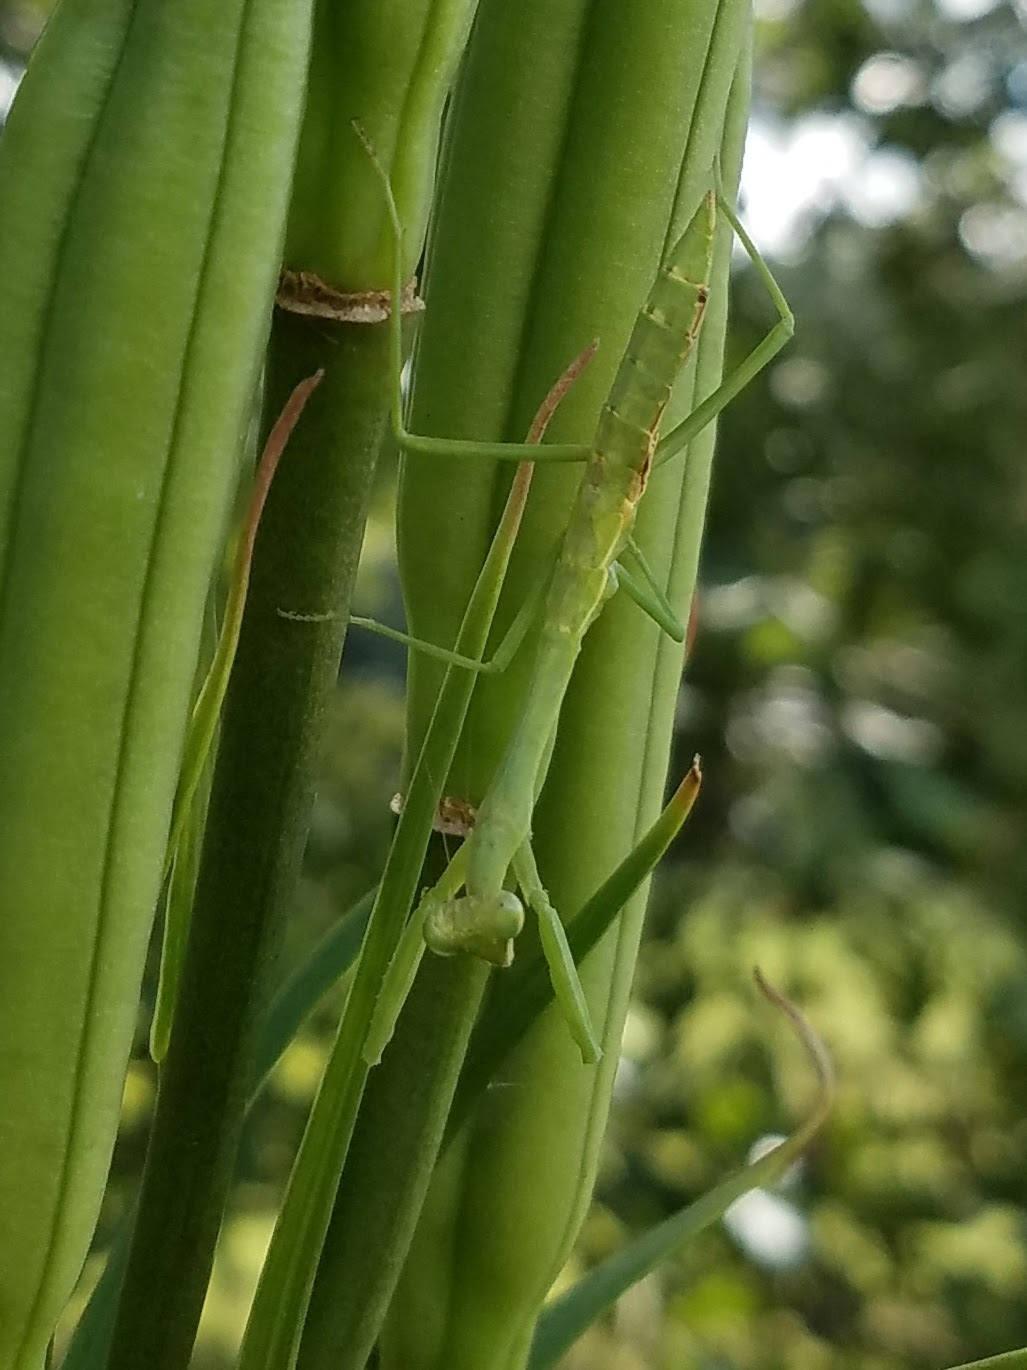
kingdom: Animalia
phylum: Arthropoda
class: Insecta
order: Mantodea
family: Mantidae
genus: Stagmomantis
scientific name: Stagmomantis carolina
